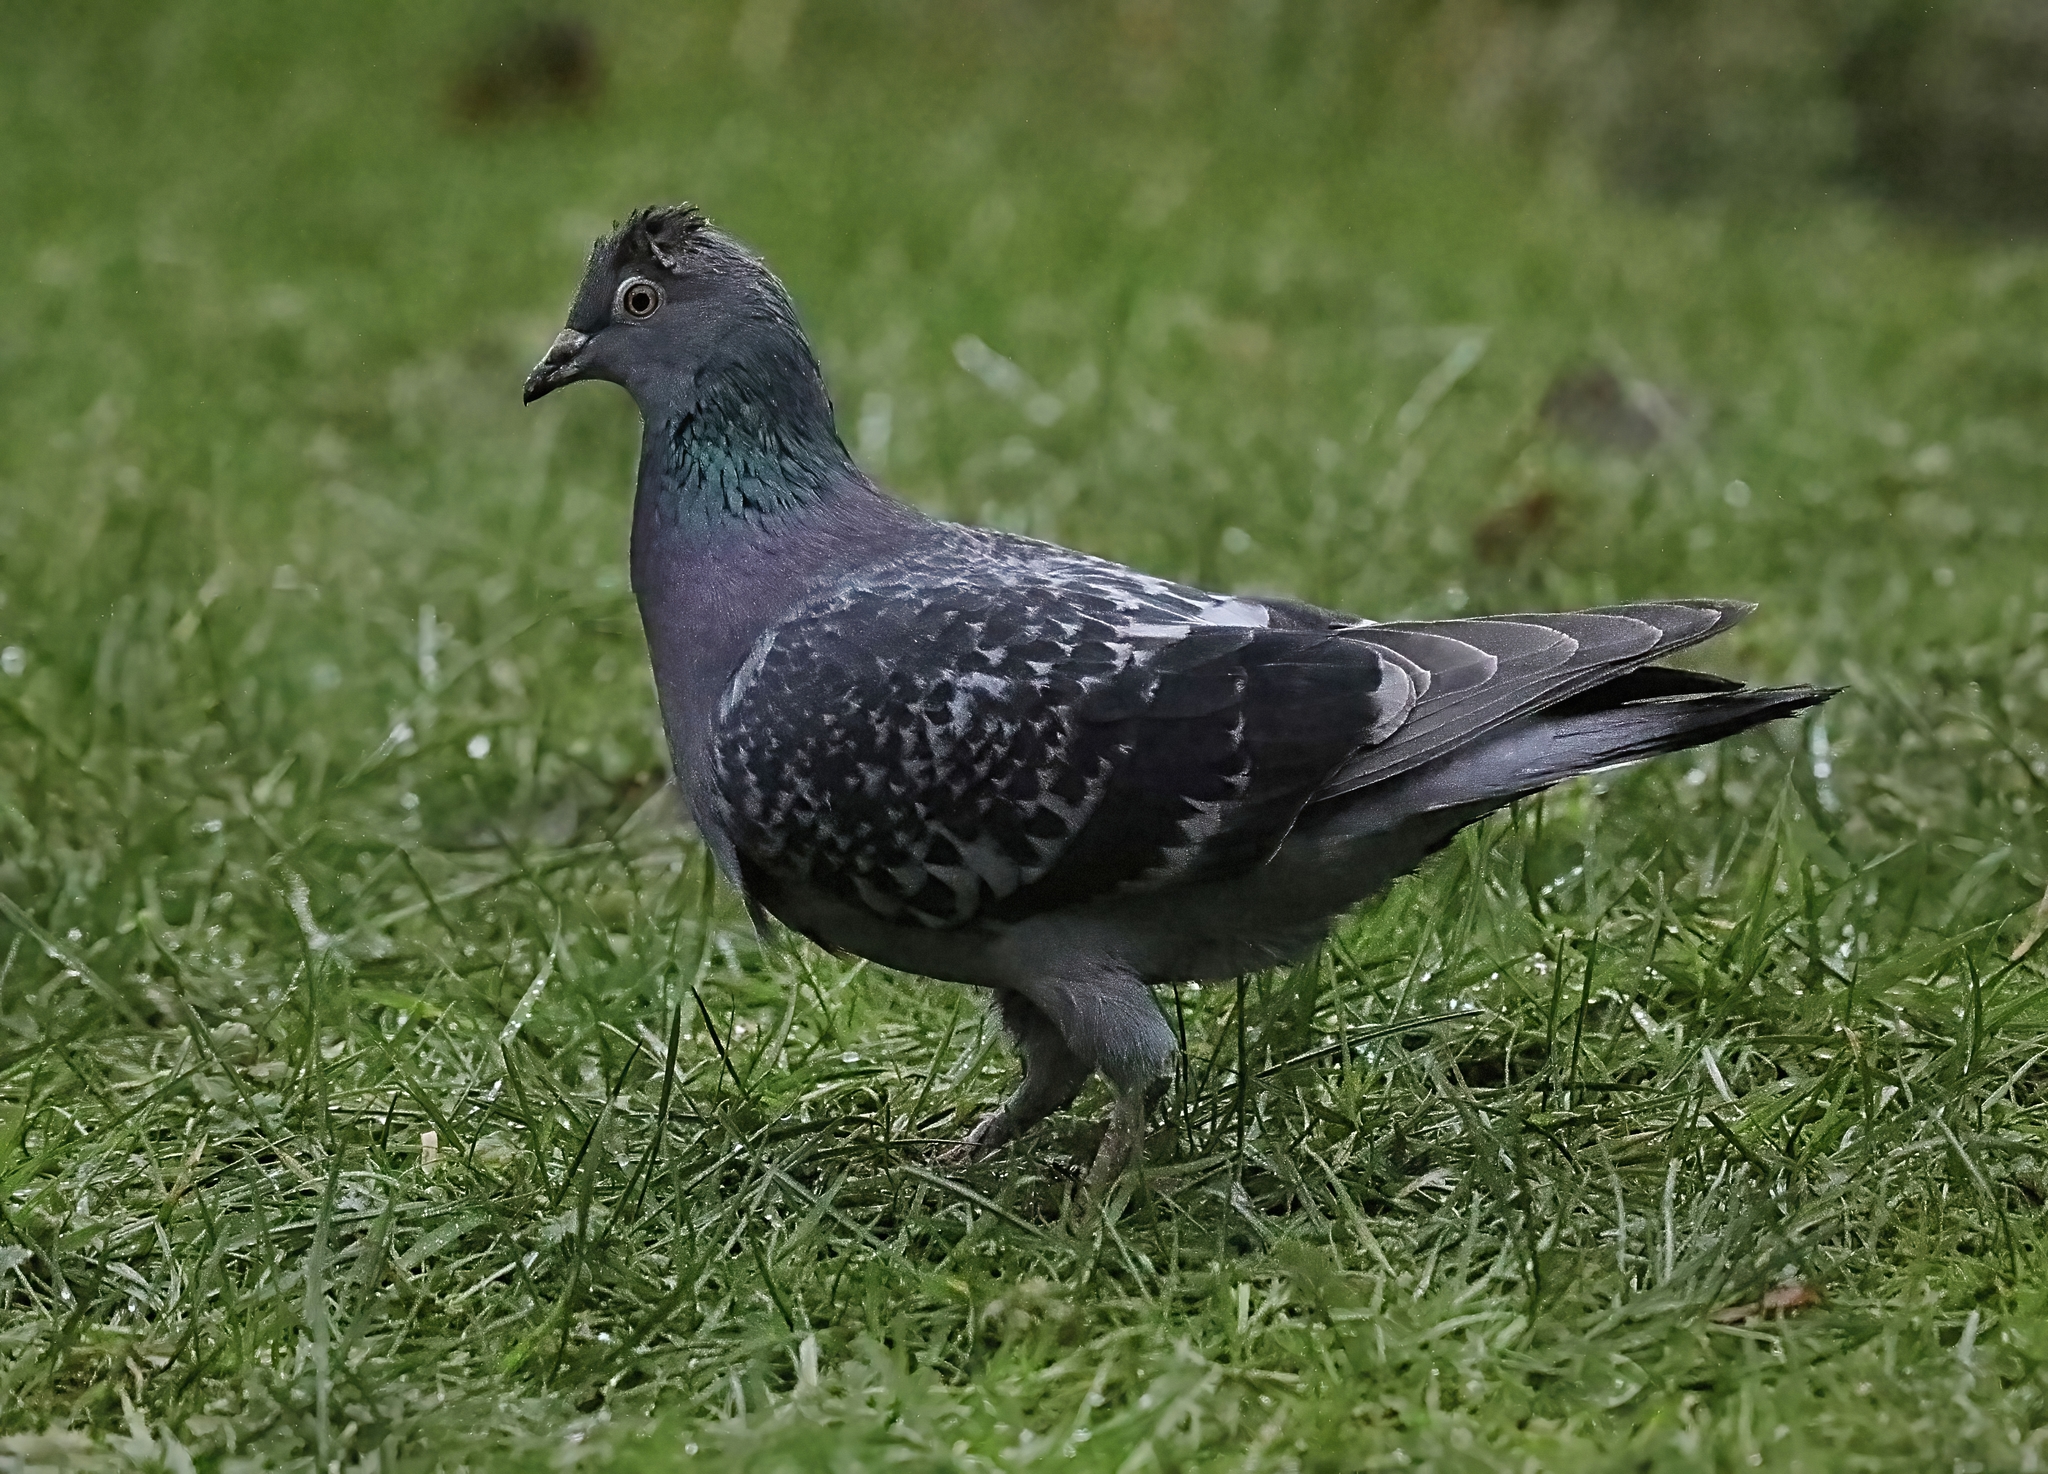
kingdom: Animalia
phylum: Chordata
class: Aves
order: Columbiformes
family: Columbidae
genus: Columba
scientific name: Columba livia
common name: Rock pigeon
